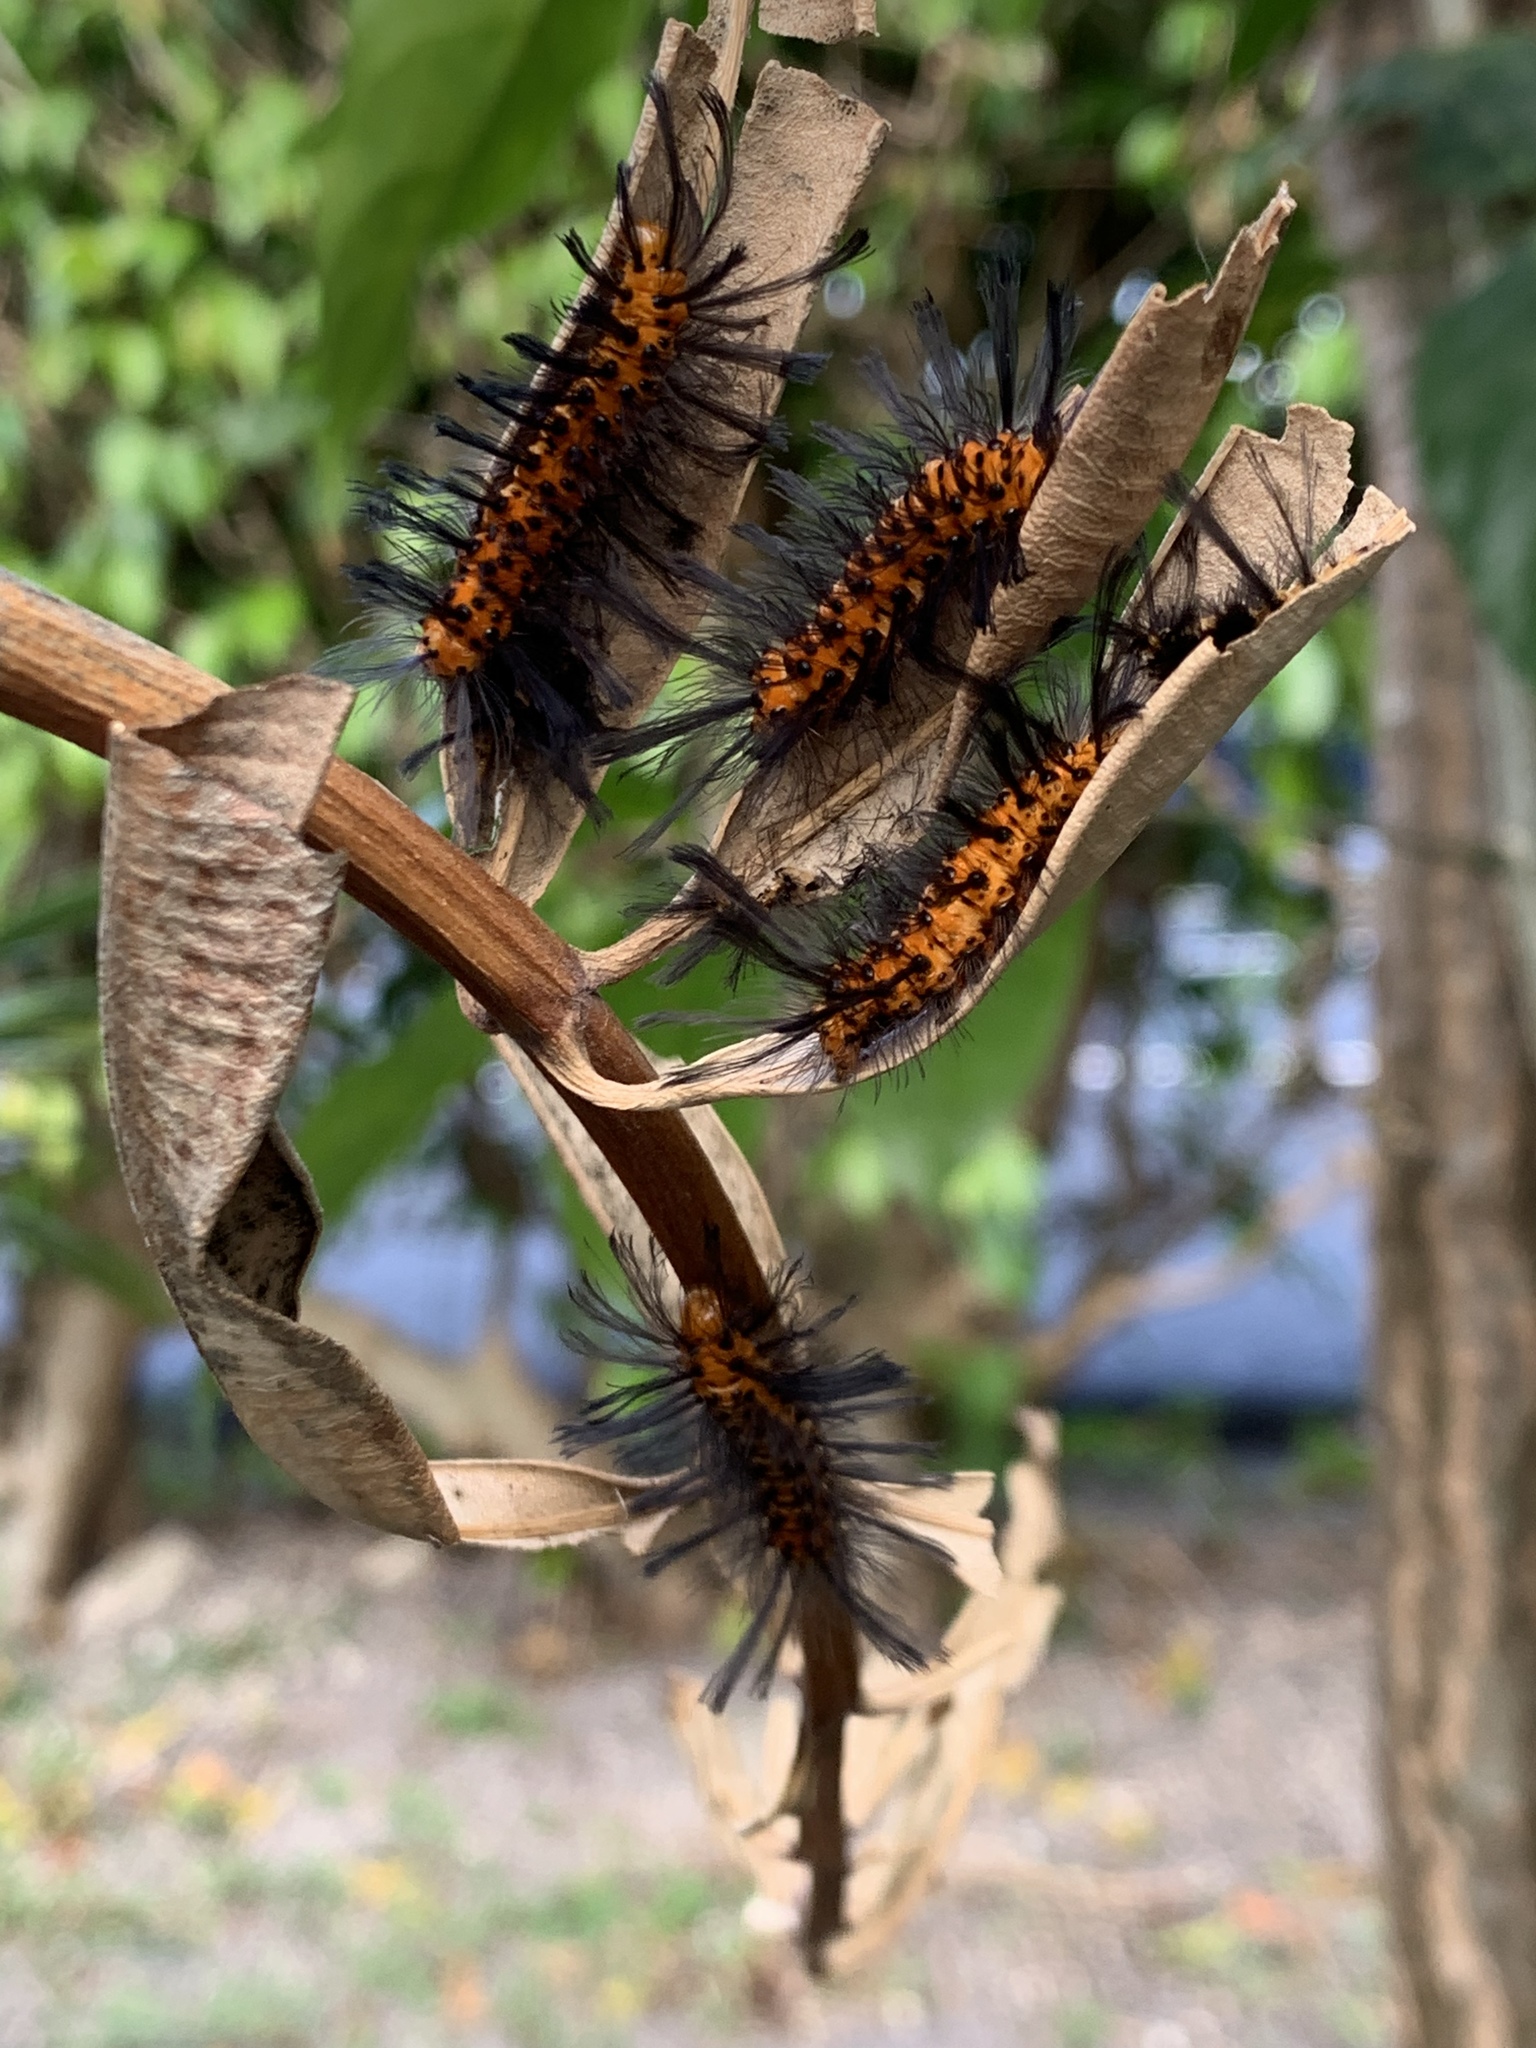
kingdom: Animalia
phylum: Arthropoda
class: Insecta
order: Lepidoptera
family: Erebidae
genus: Syntomeida
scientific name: Syntomeida epilais
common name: Polka-dot wasp moth
